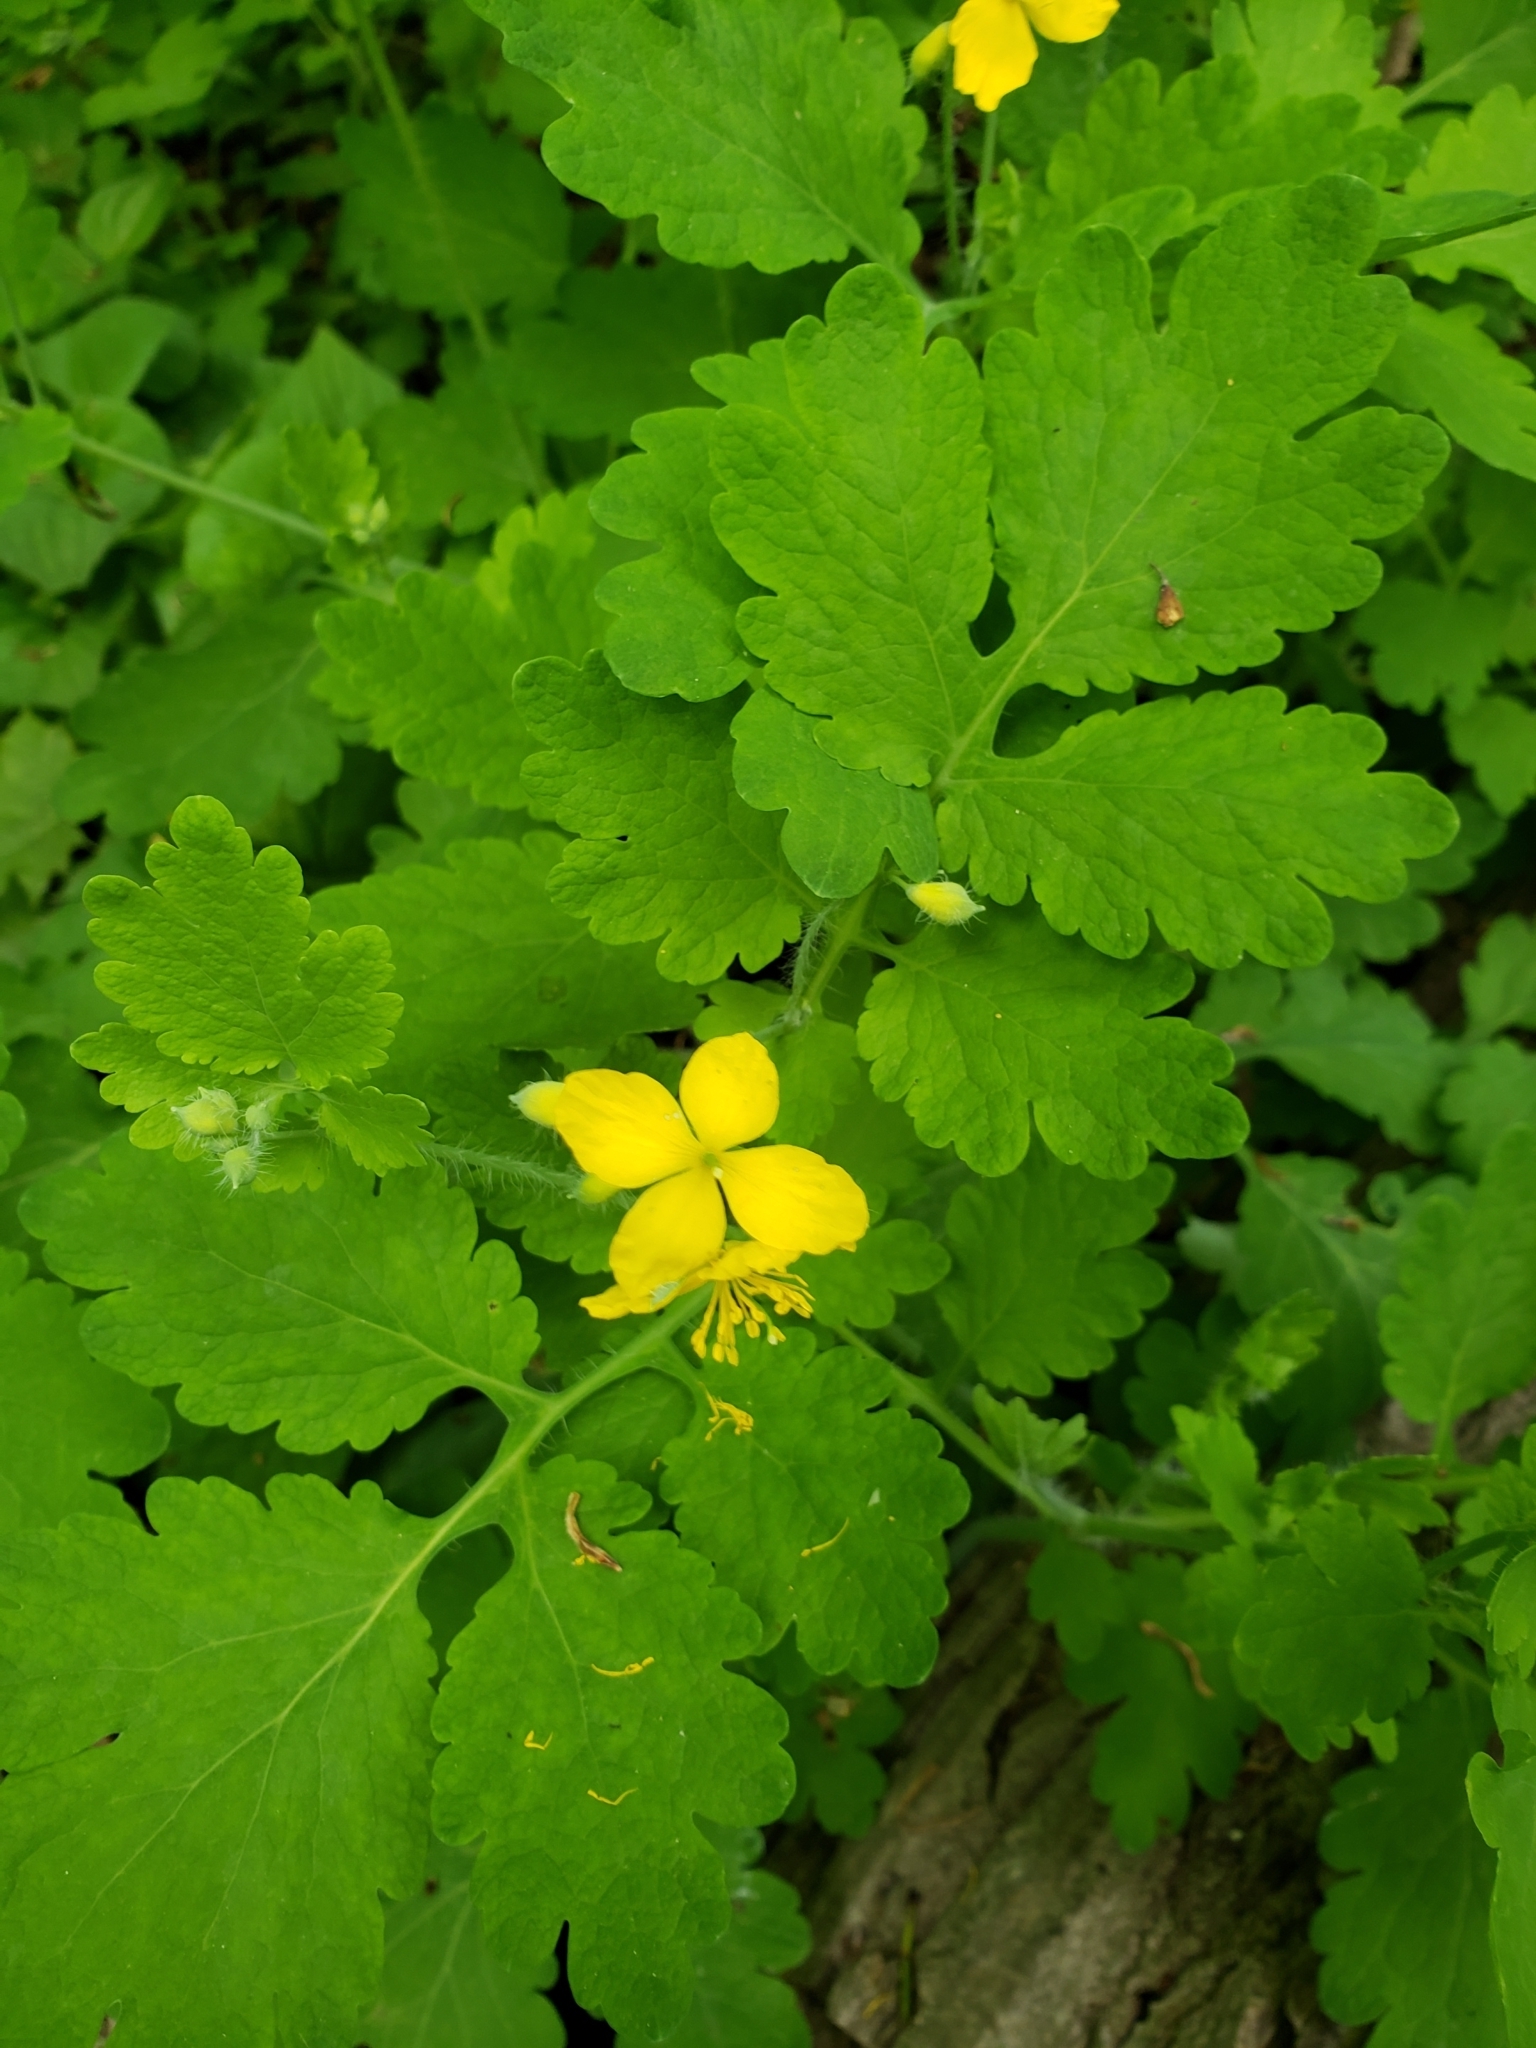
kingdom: Plantae
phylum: Tracheophyta
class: Magnoliopsida
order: Ranunculales
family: Papaveraceae
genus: Chelidonium
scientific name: Chelidonium majus
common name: Greater celandine
